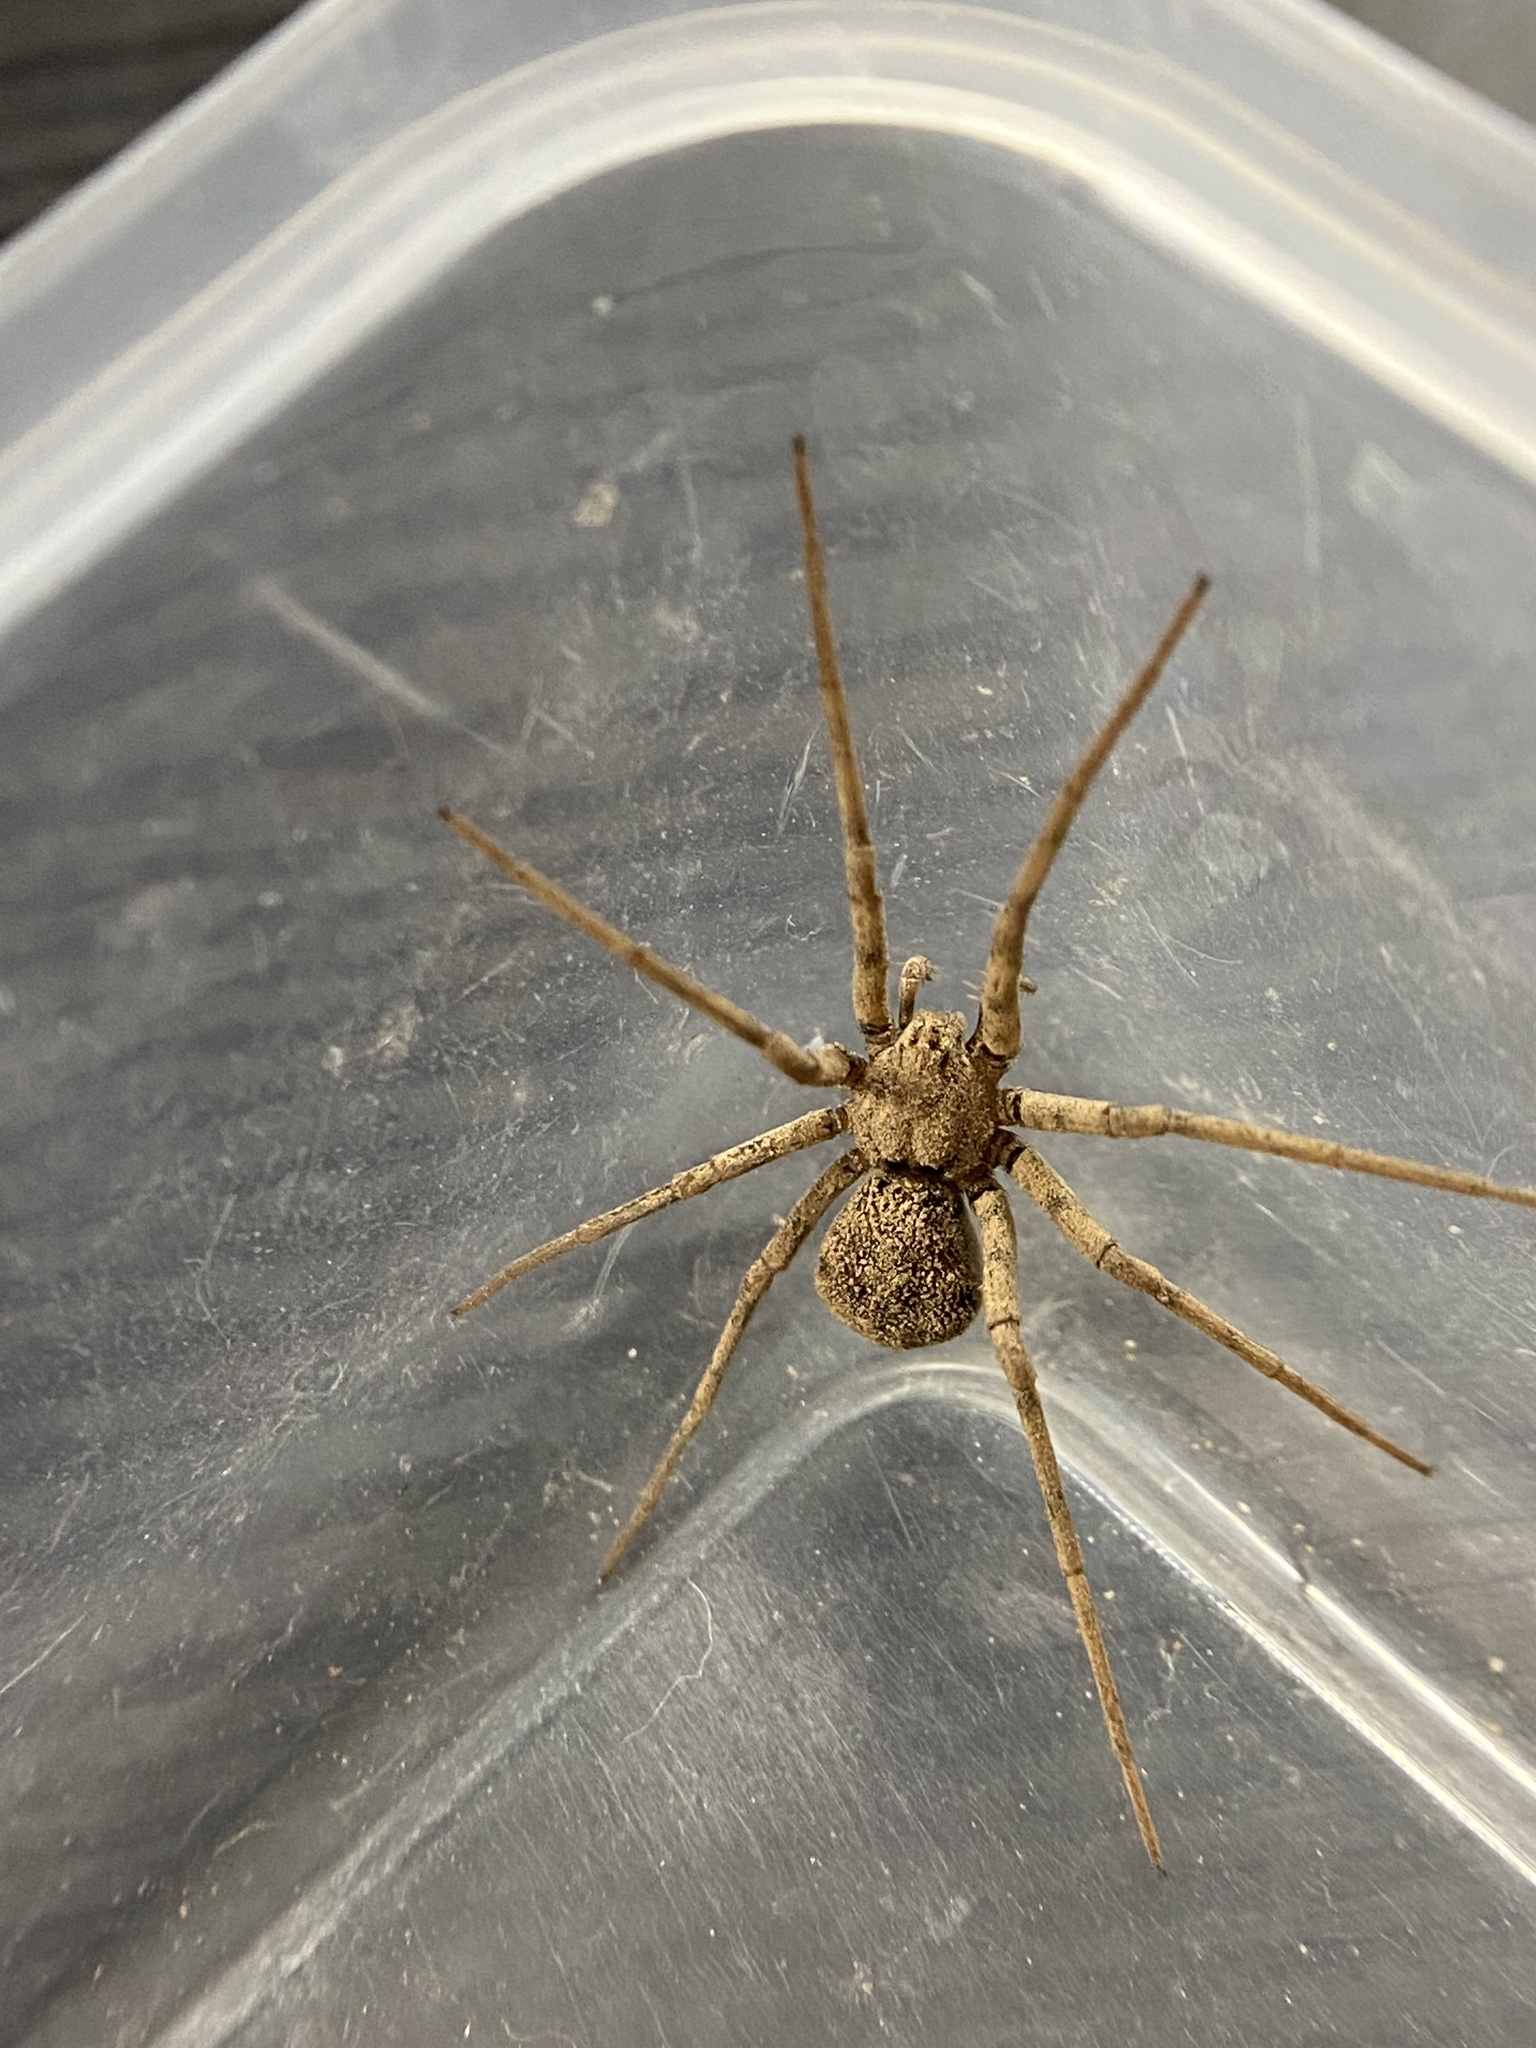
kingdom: Animalia
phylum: Arthropoda
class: Arachnida
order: Araneae
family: Homalonychidae
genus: Homalonychus
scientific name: Homalonychus selenopoides
